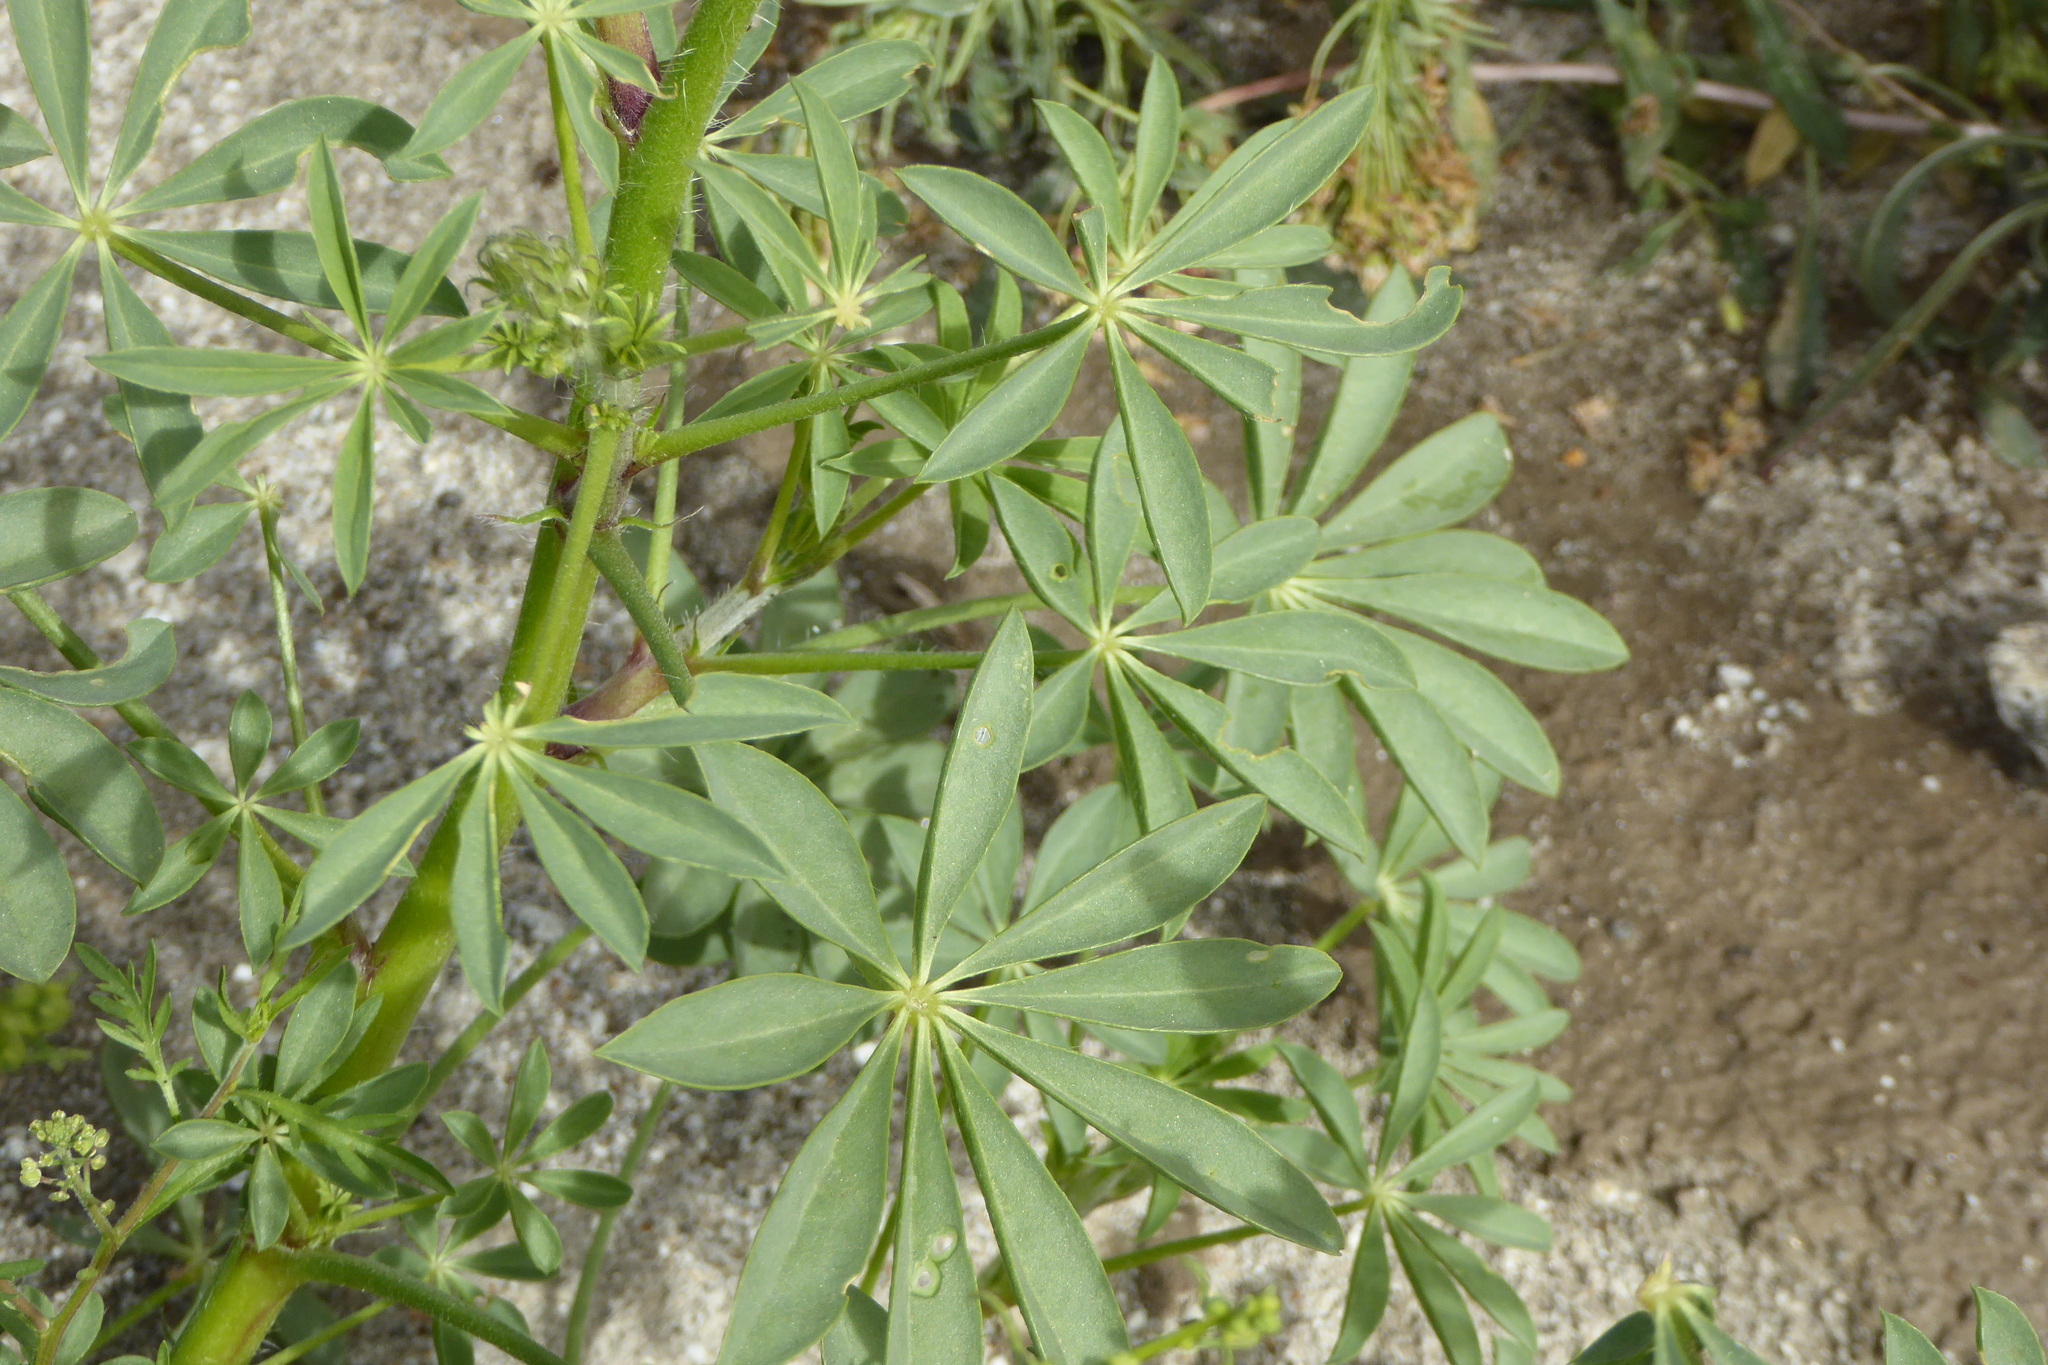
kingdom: Plantae
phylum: Tracheophyta
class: Magnoliopsida
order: Fabales
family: Fabaceae
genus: Lupinus
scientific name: Lupinus arizonicus
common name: Arizona lupine
